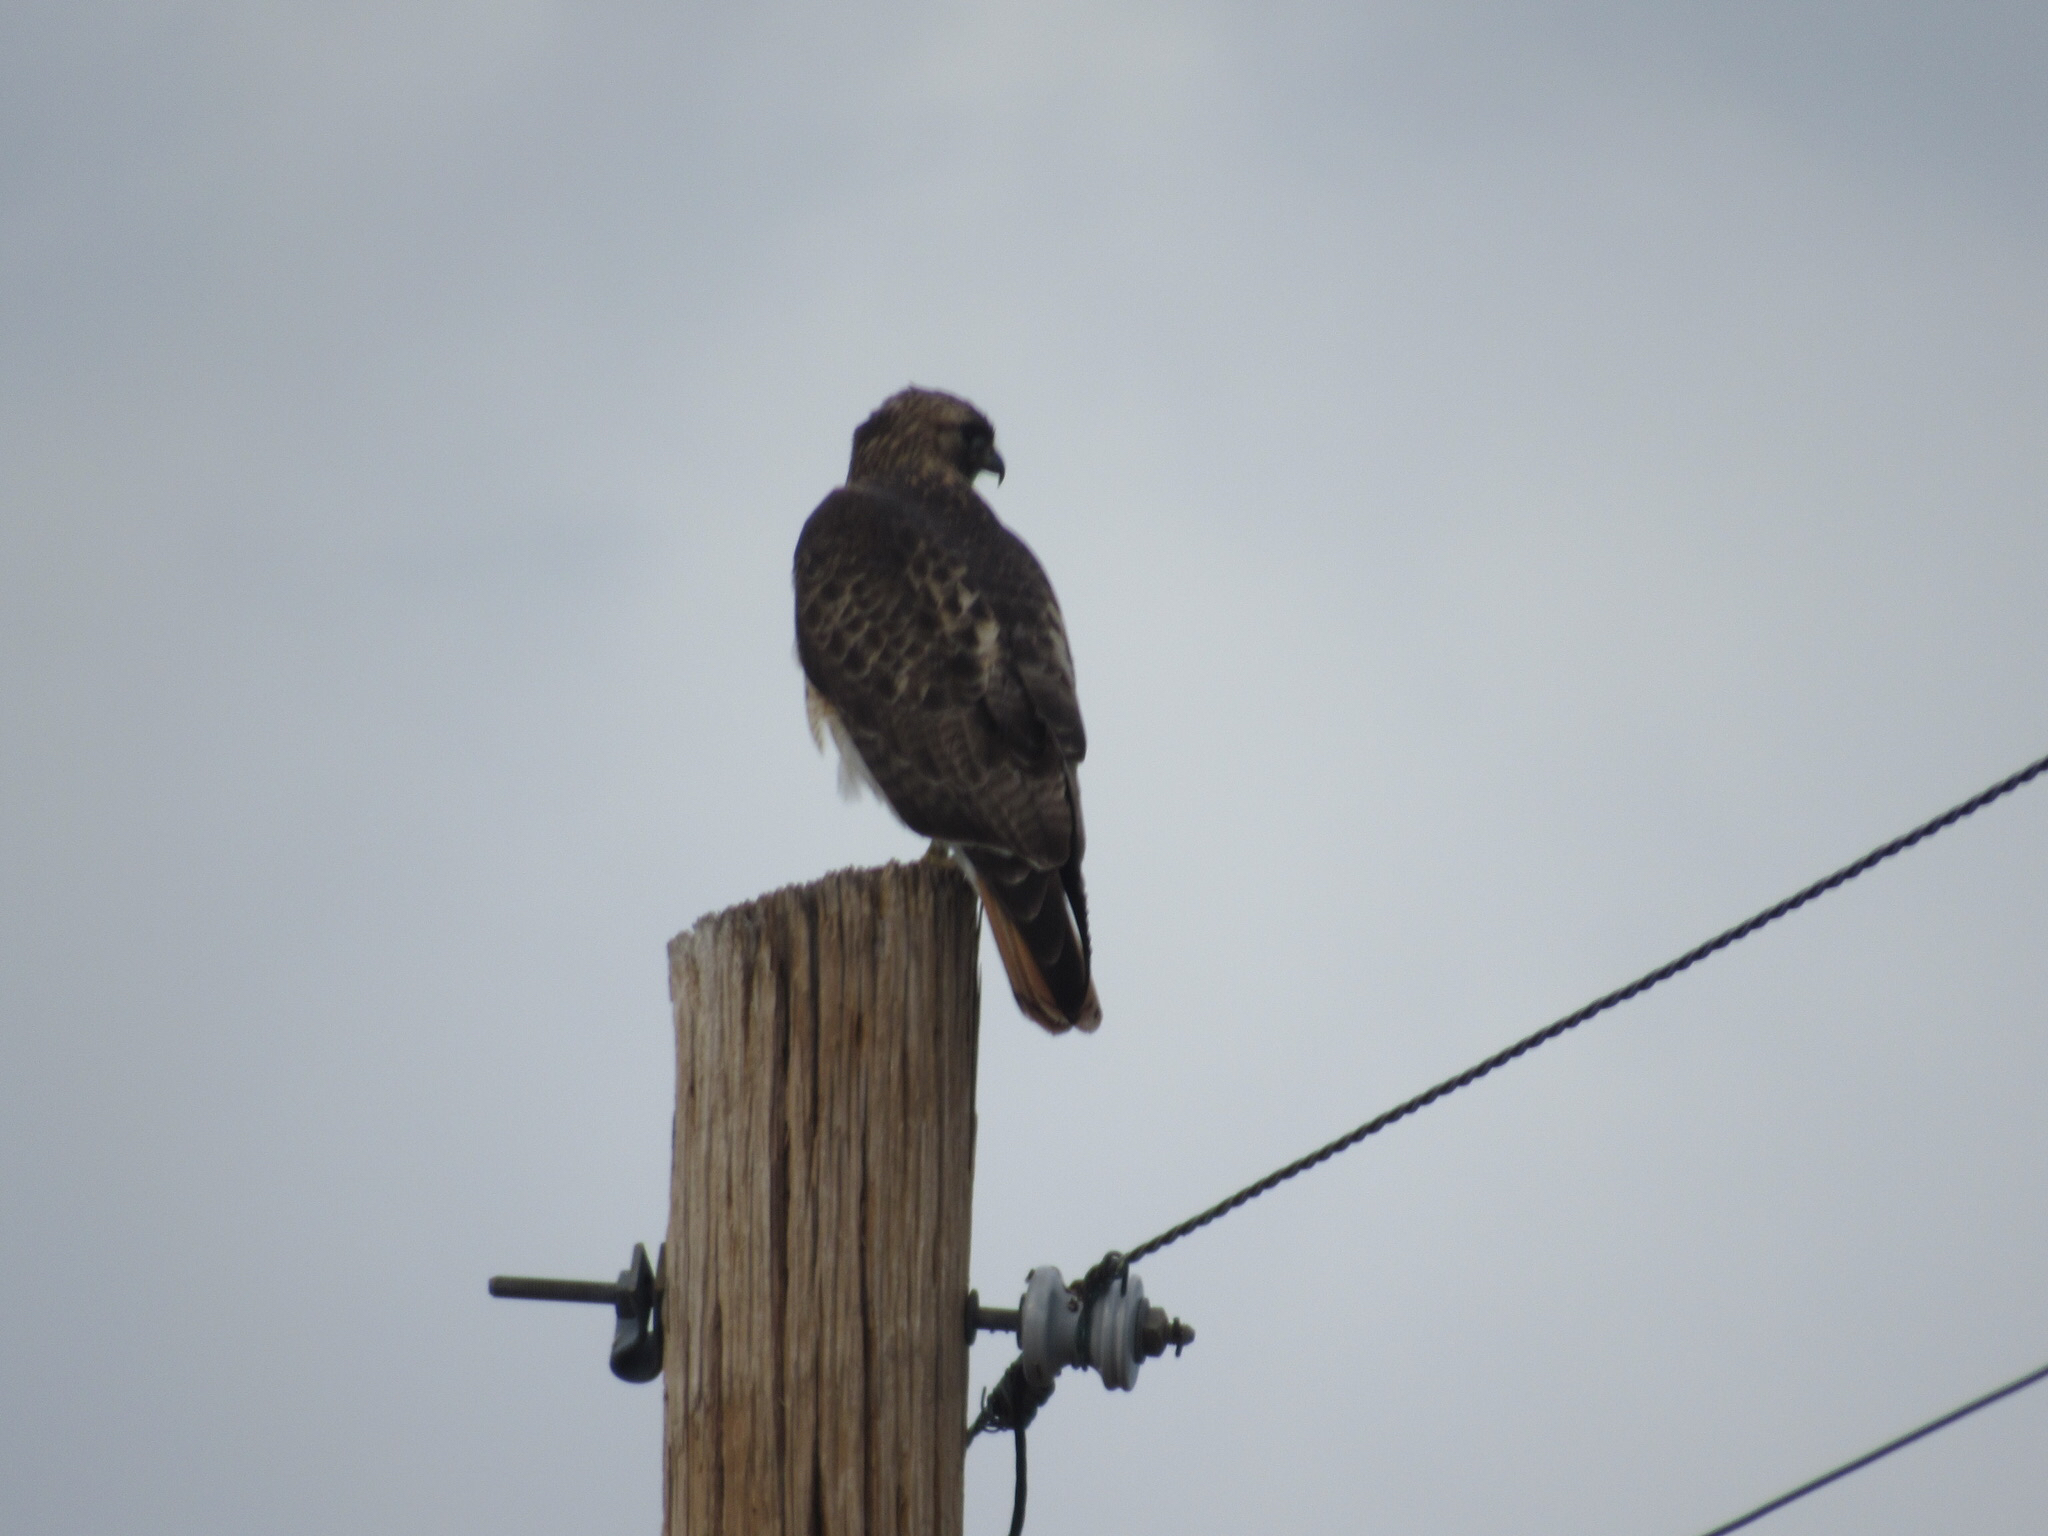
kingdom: Animalia
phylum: Chordata
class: Aves
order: Accipitriformes
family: Accipitridae
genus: Buteo
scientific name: Buteo jamaicensis
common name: Red-tailed hawk
